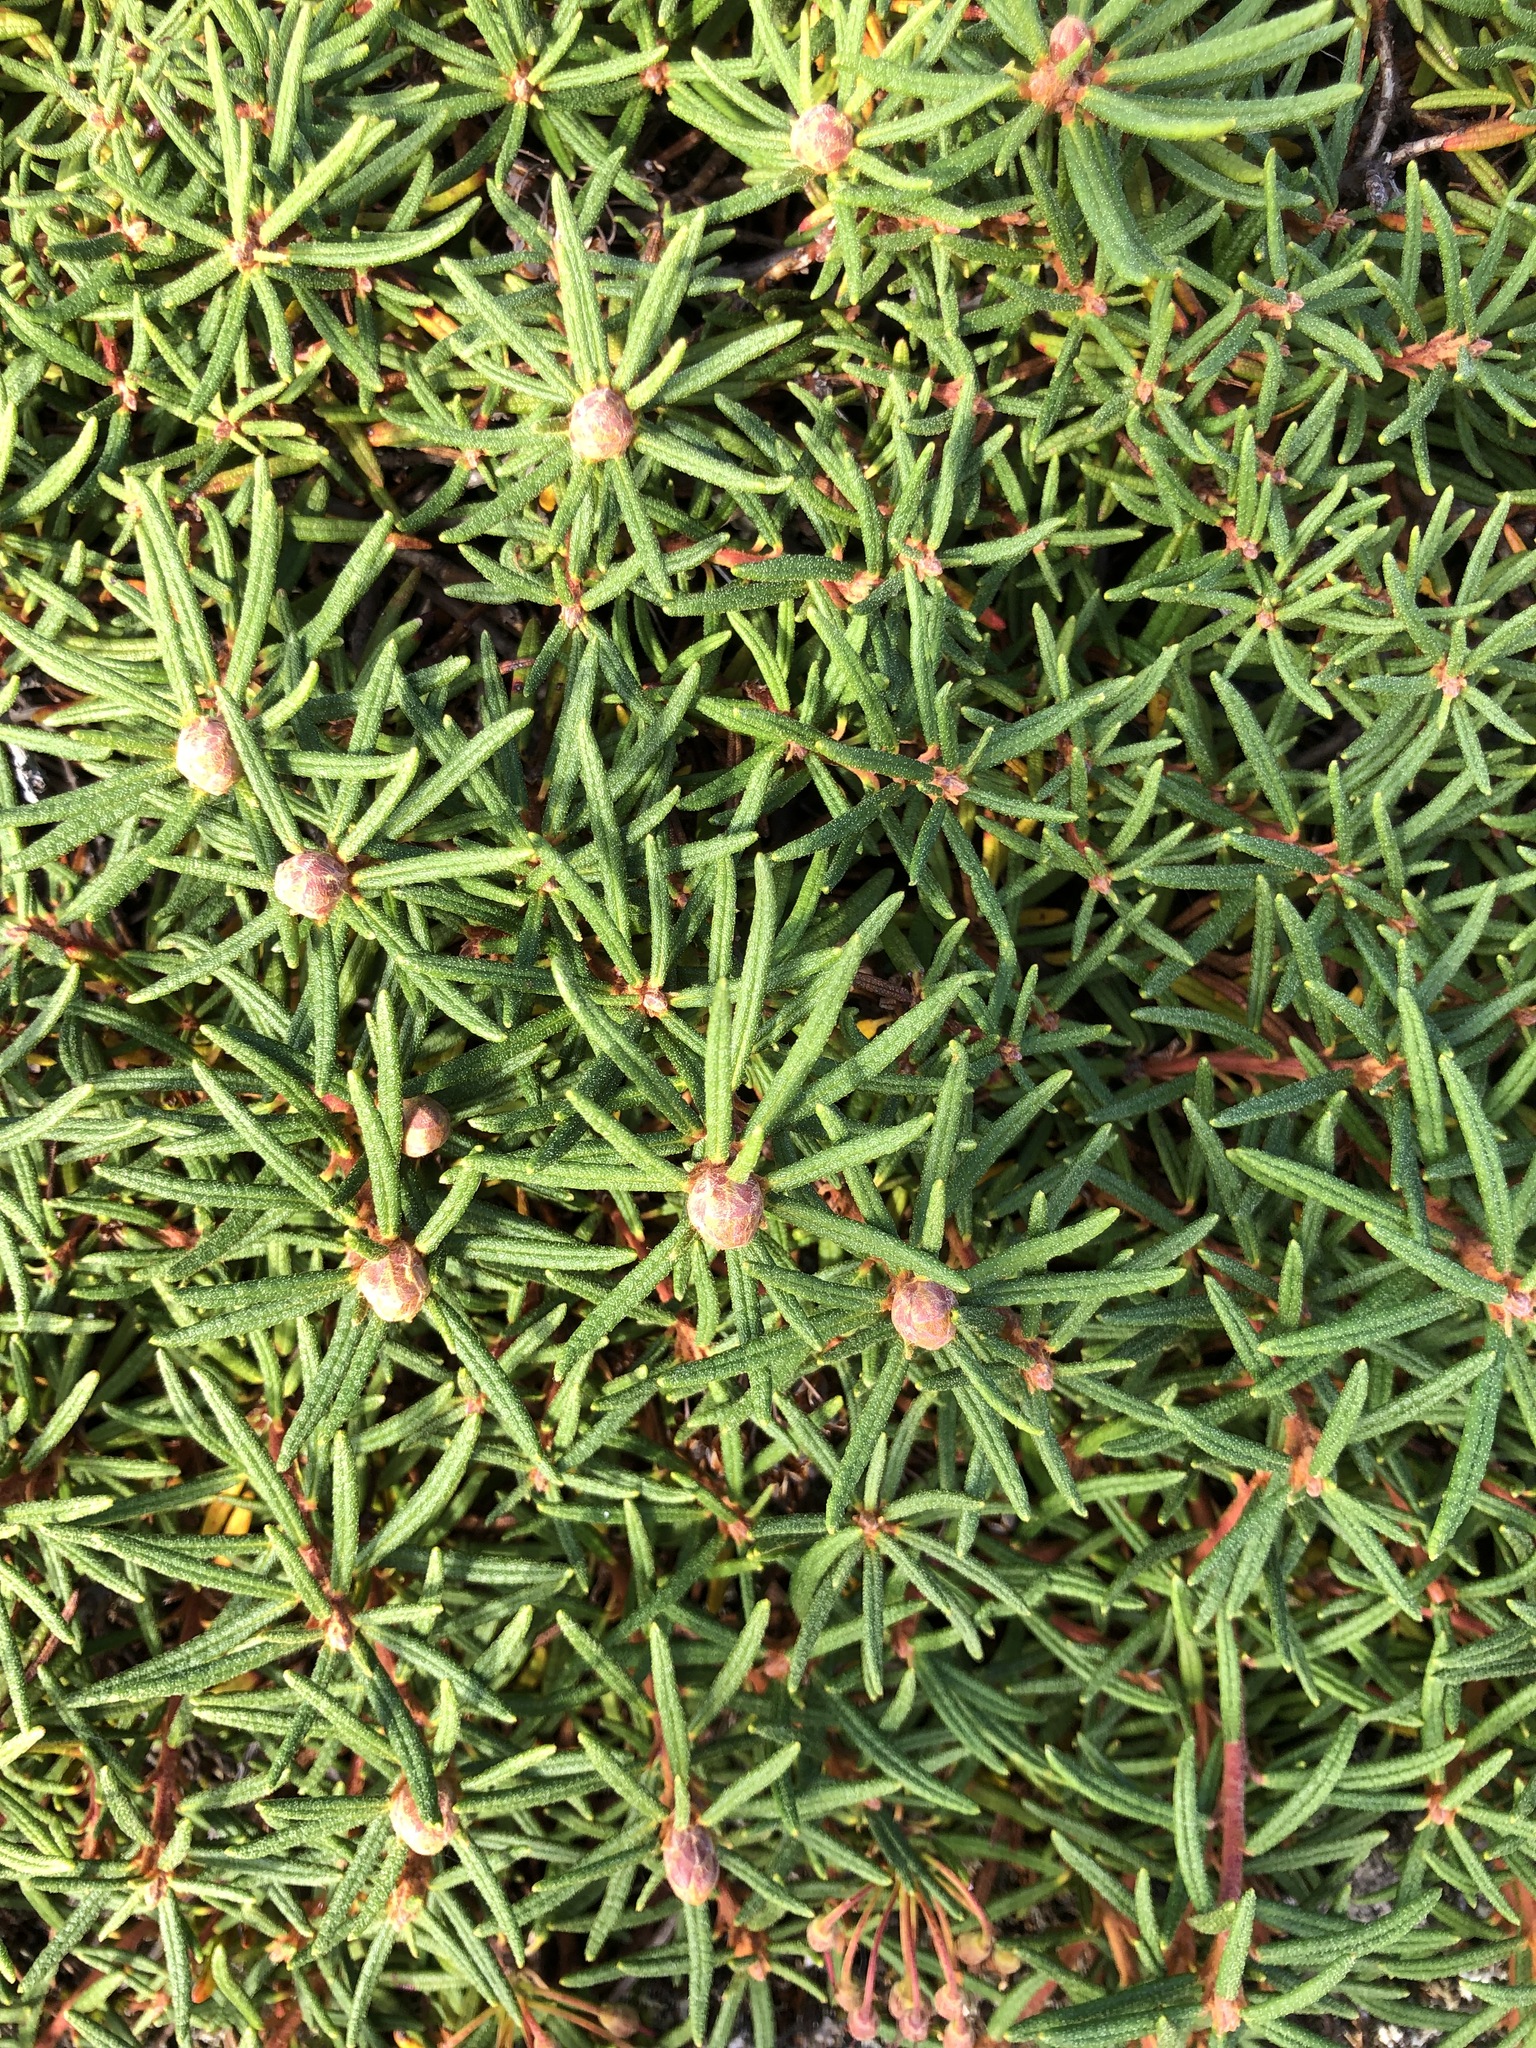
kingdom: Plantae
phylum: Tracheophyta
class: Magnoliopsida
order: Ericales
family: Ericaceae
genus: Rhododendron
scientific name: Rhododendron tomentosum
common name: Marsh labrador tea
